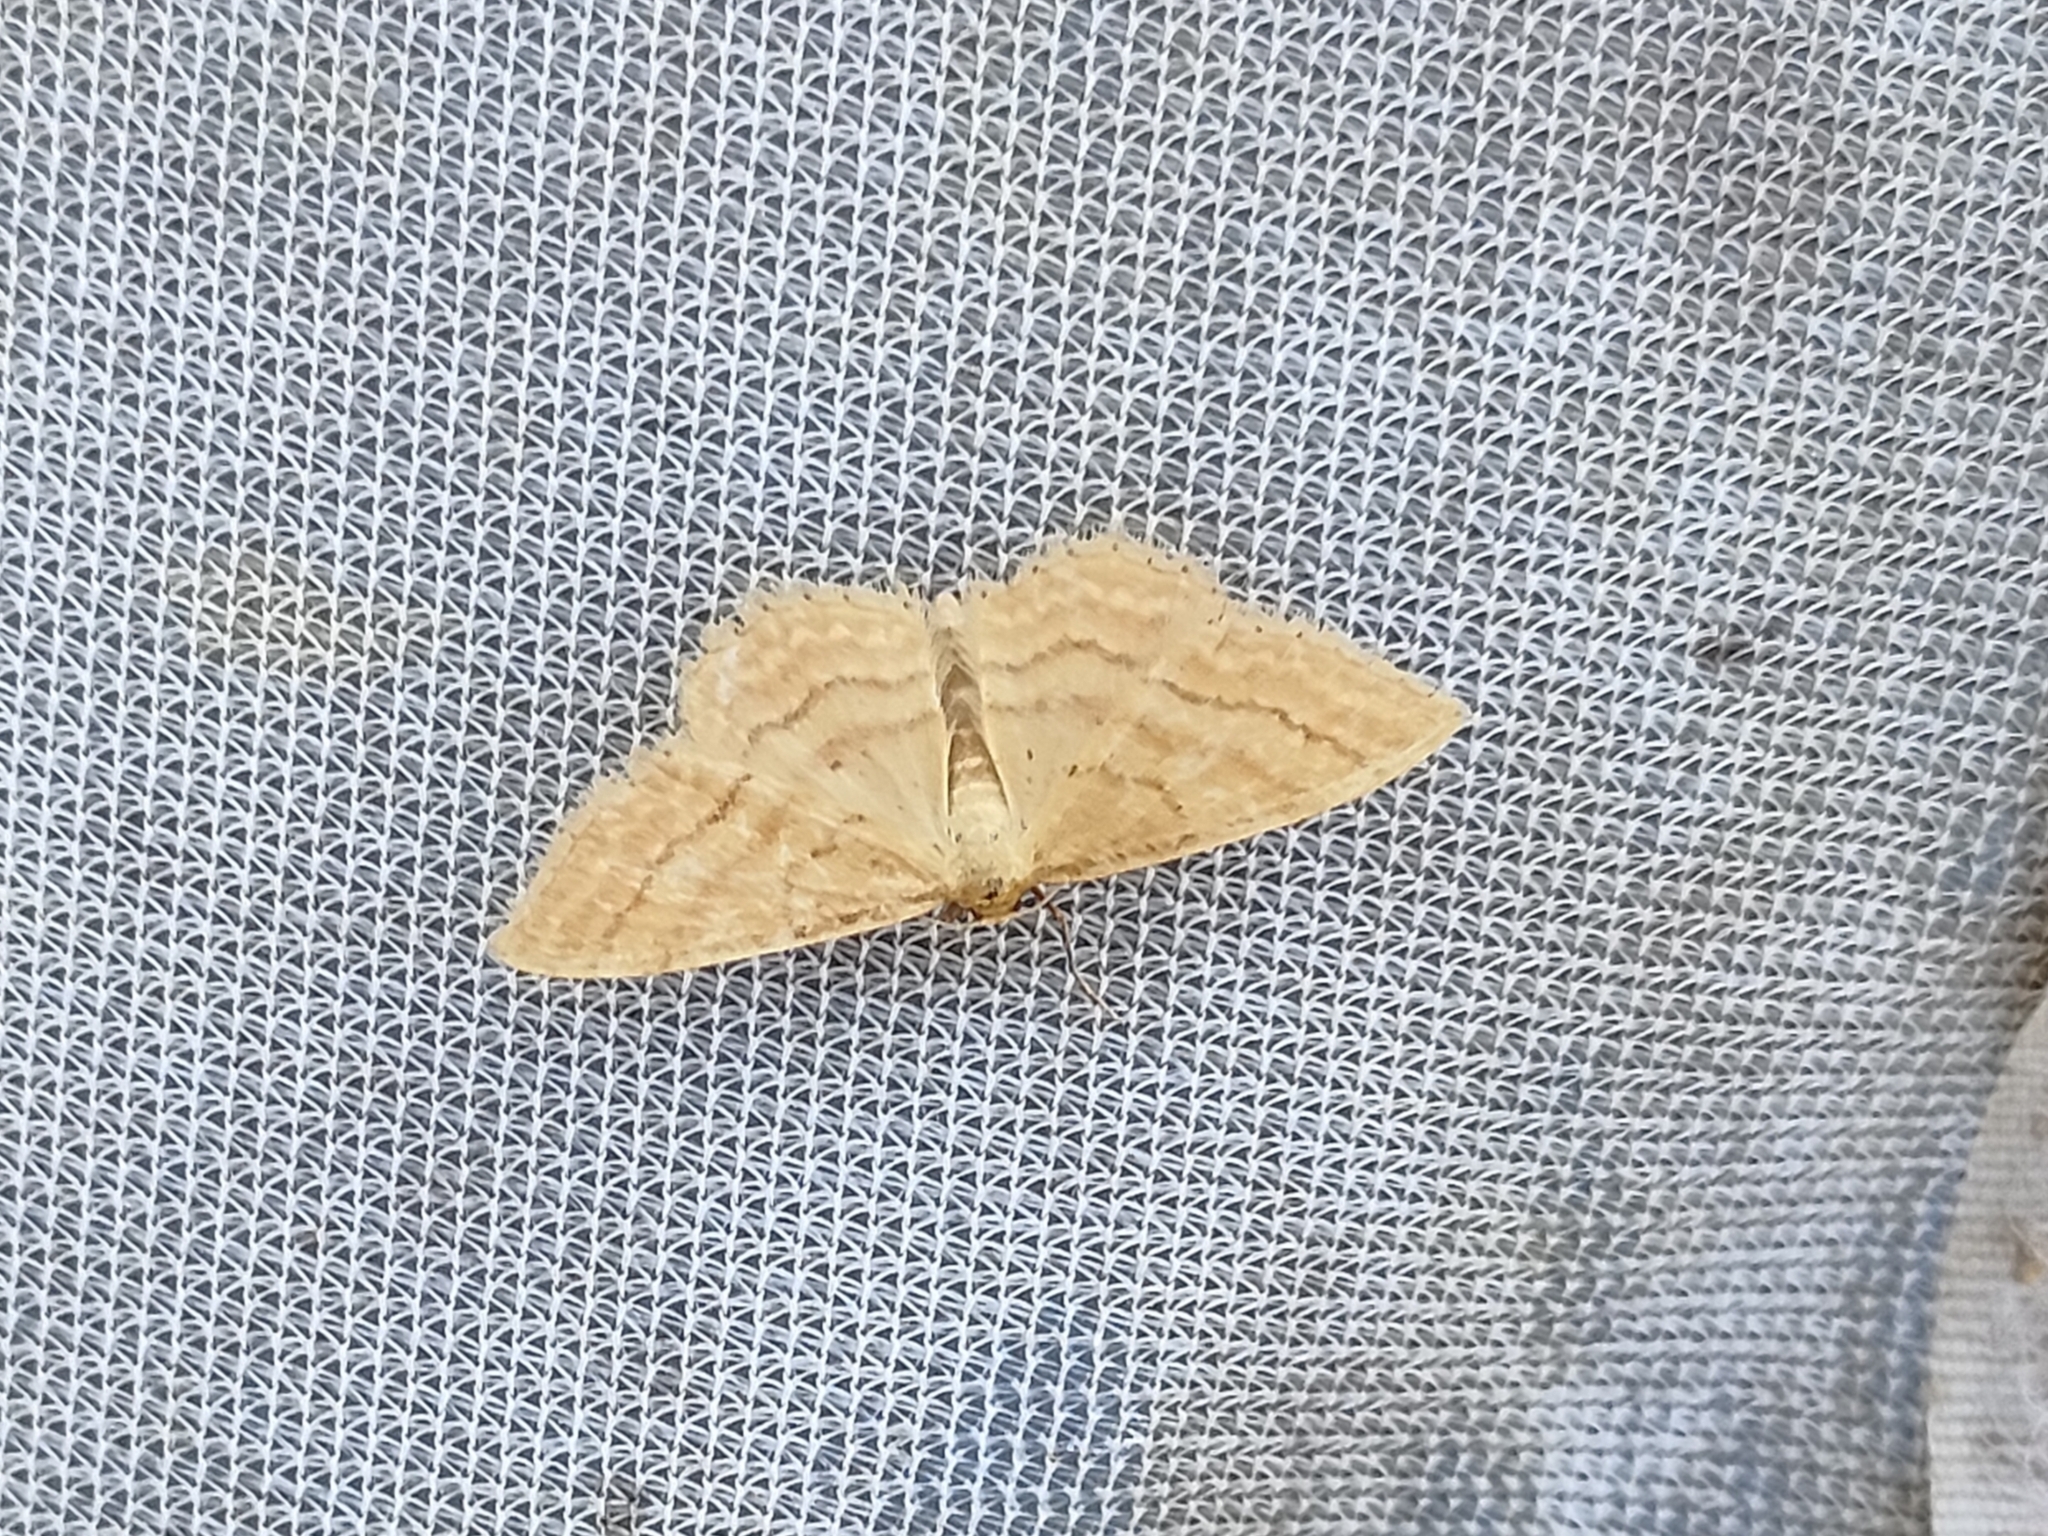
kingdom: Animalia
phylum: Arthropoda
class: Insecta
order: Lepidoptera
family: Geometridae
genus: Idaea
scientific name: Idaea ochrata
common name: Bright wave
